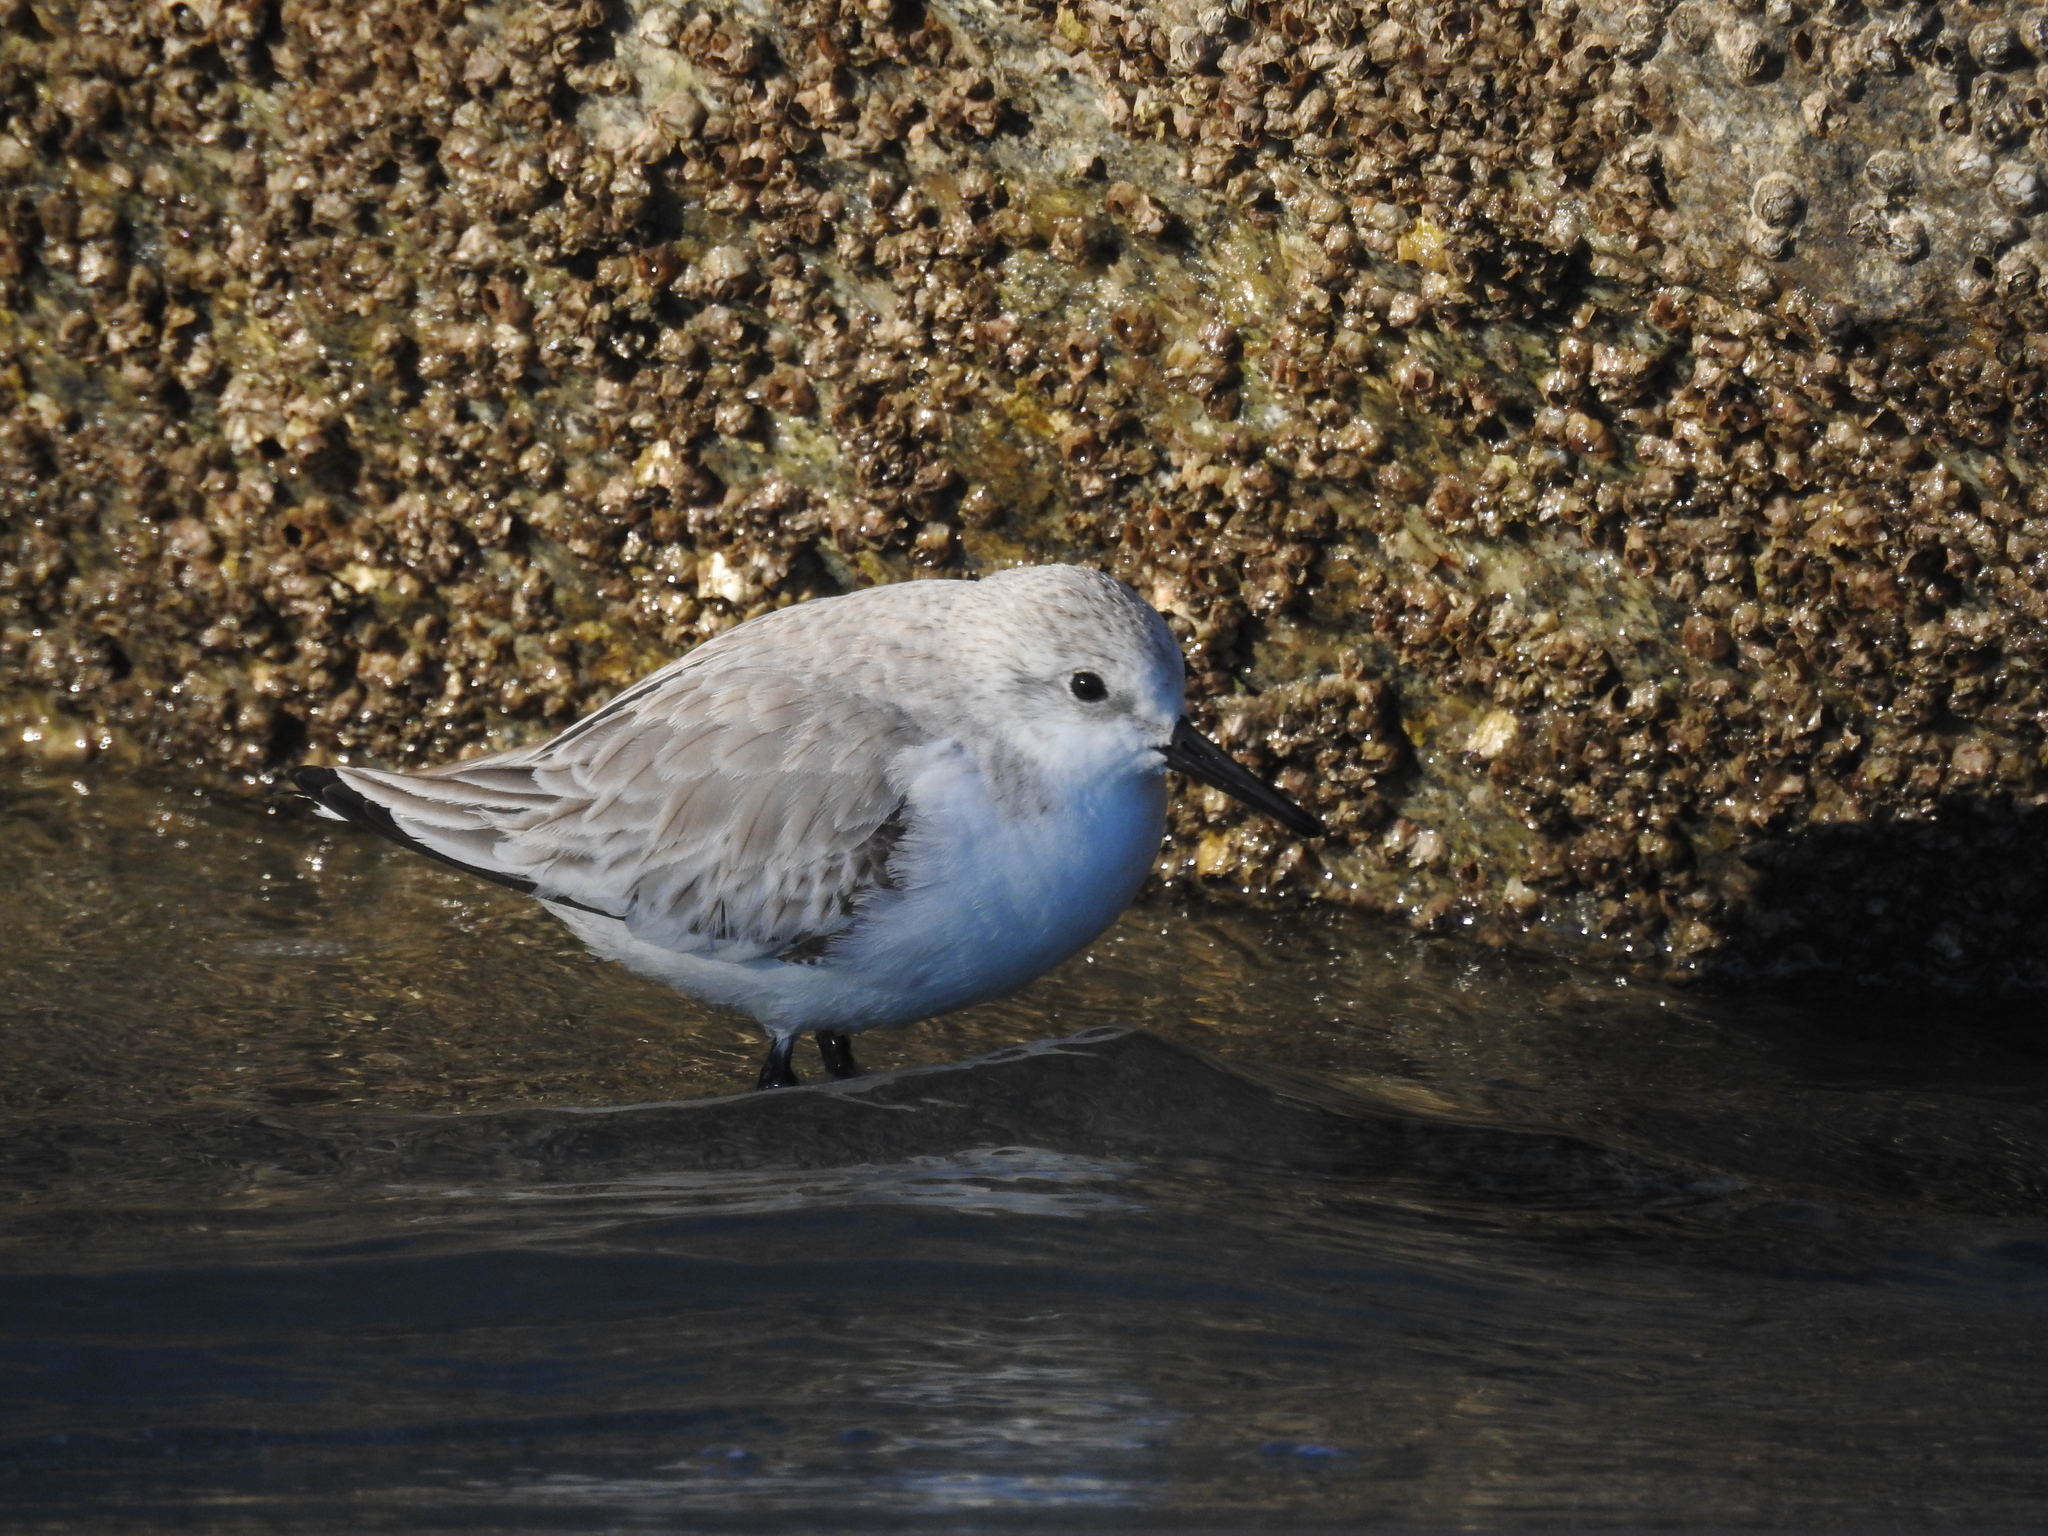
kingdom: Animalia
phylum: Chordata
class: Aves
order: Charadriiformes
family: Scolopacidae
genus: Calidris
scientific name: Calidris alba
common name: Sanderling
